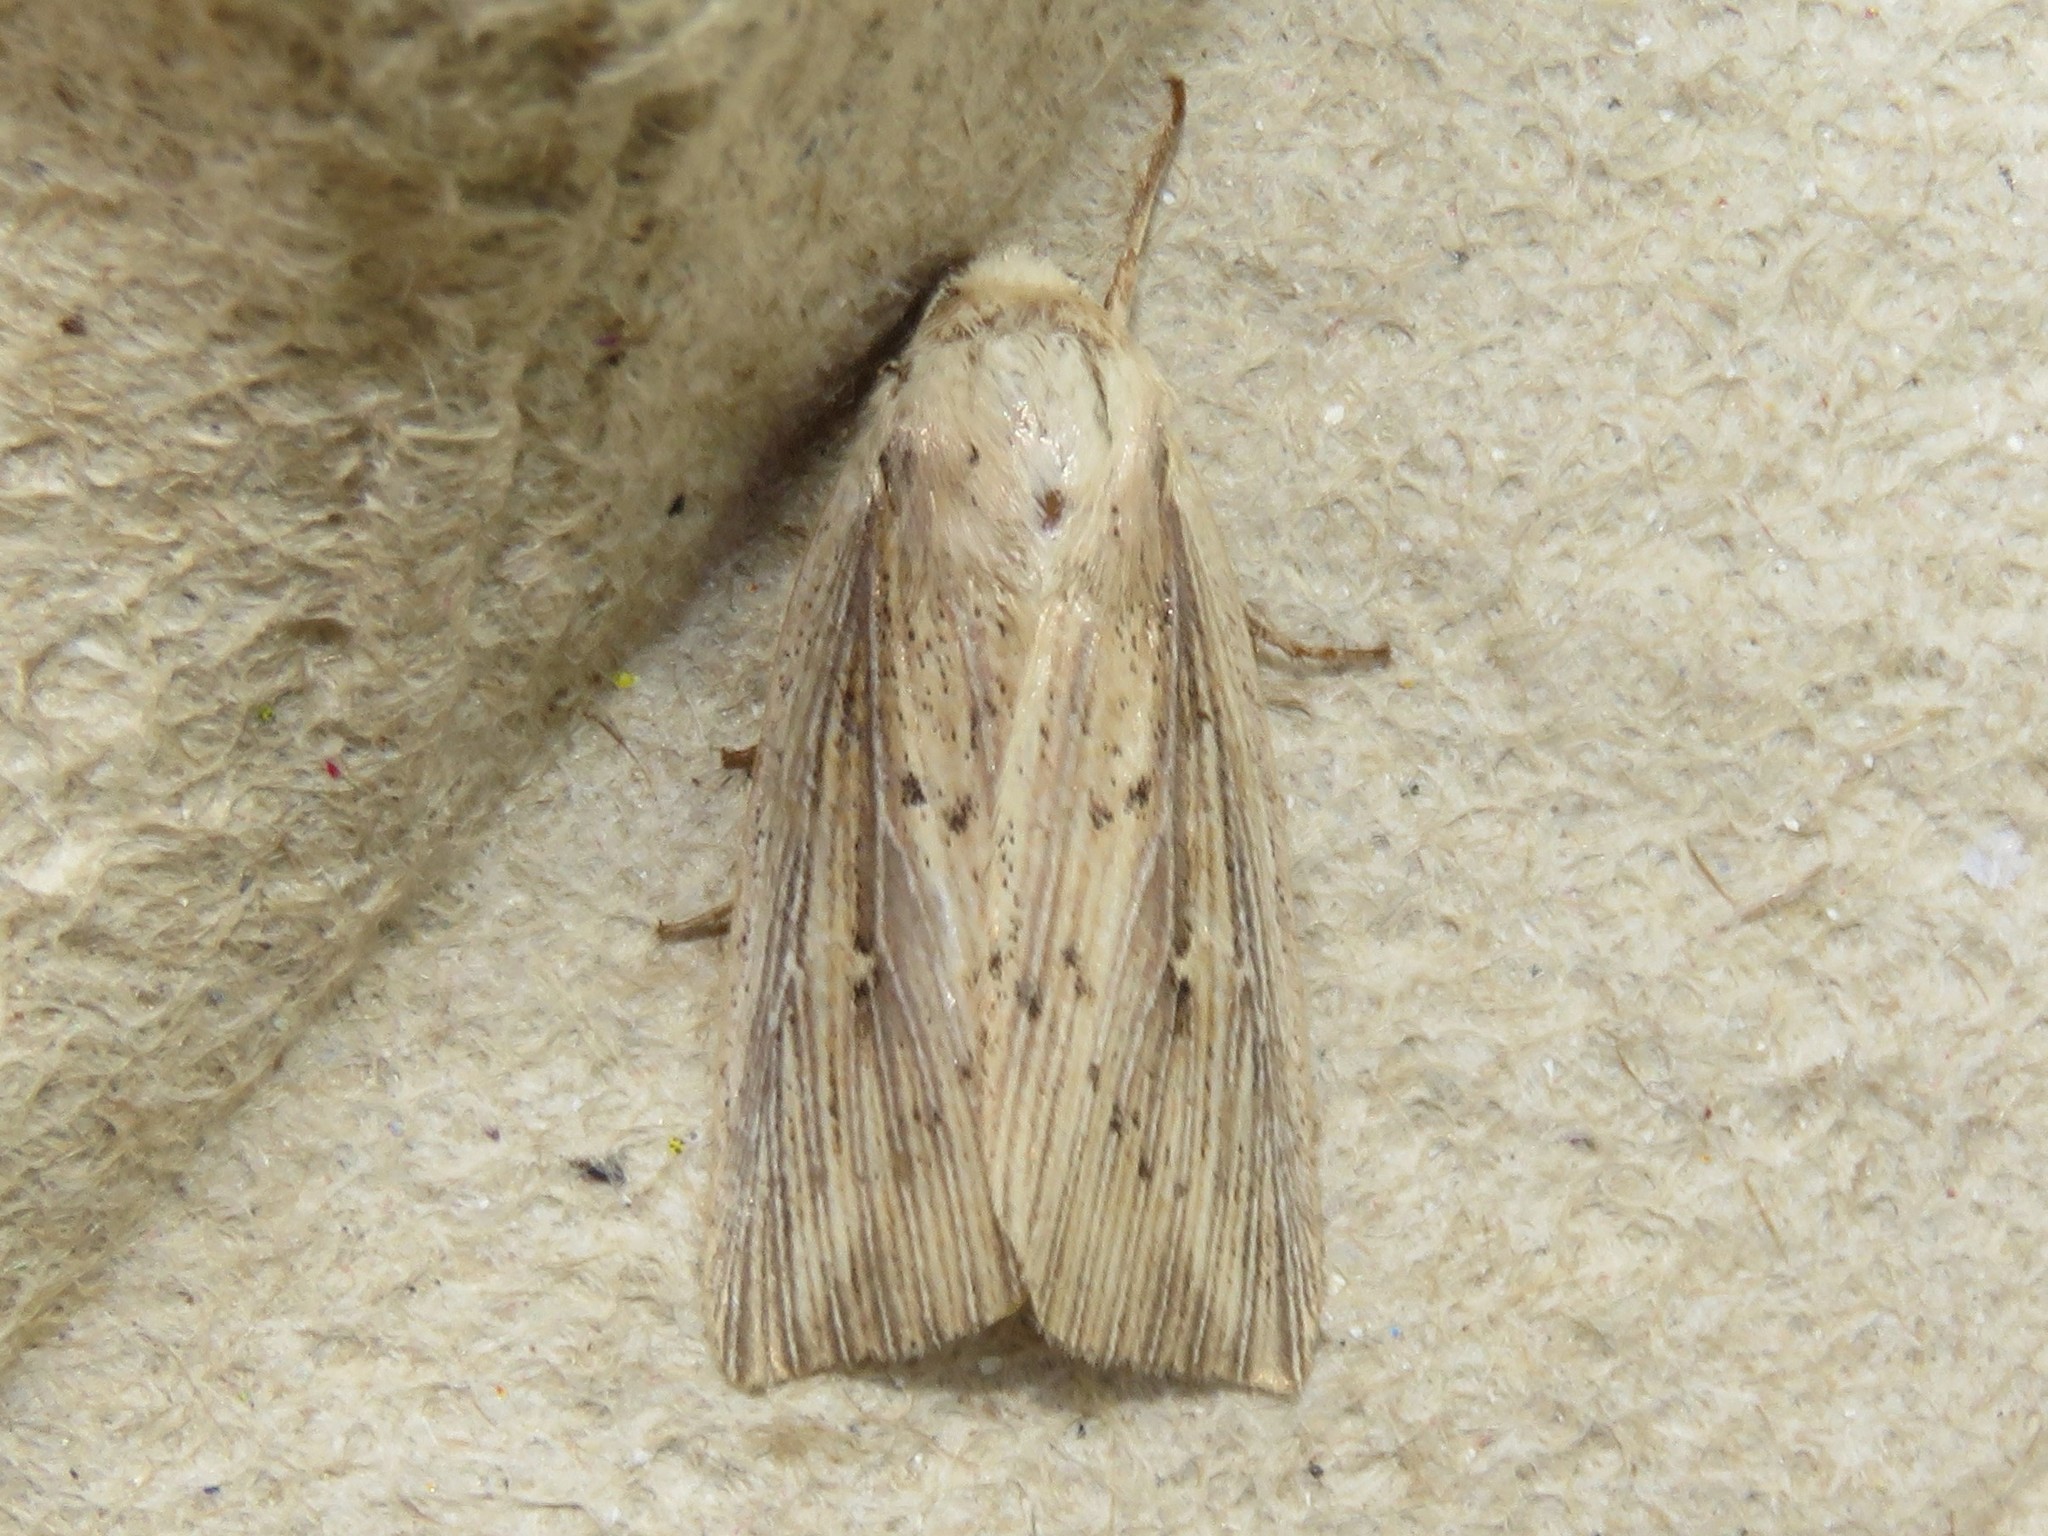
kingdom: Animalia
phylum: Arthropoda
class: Insecta
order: Lepidoptera
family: Noctuidae
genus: Leucania
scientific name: Leucania linita
